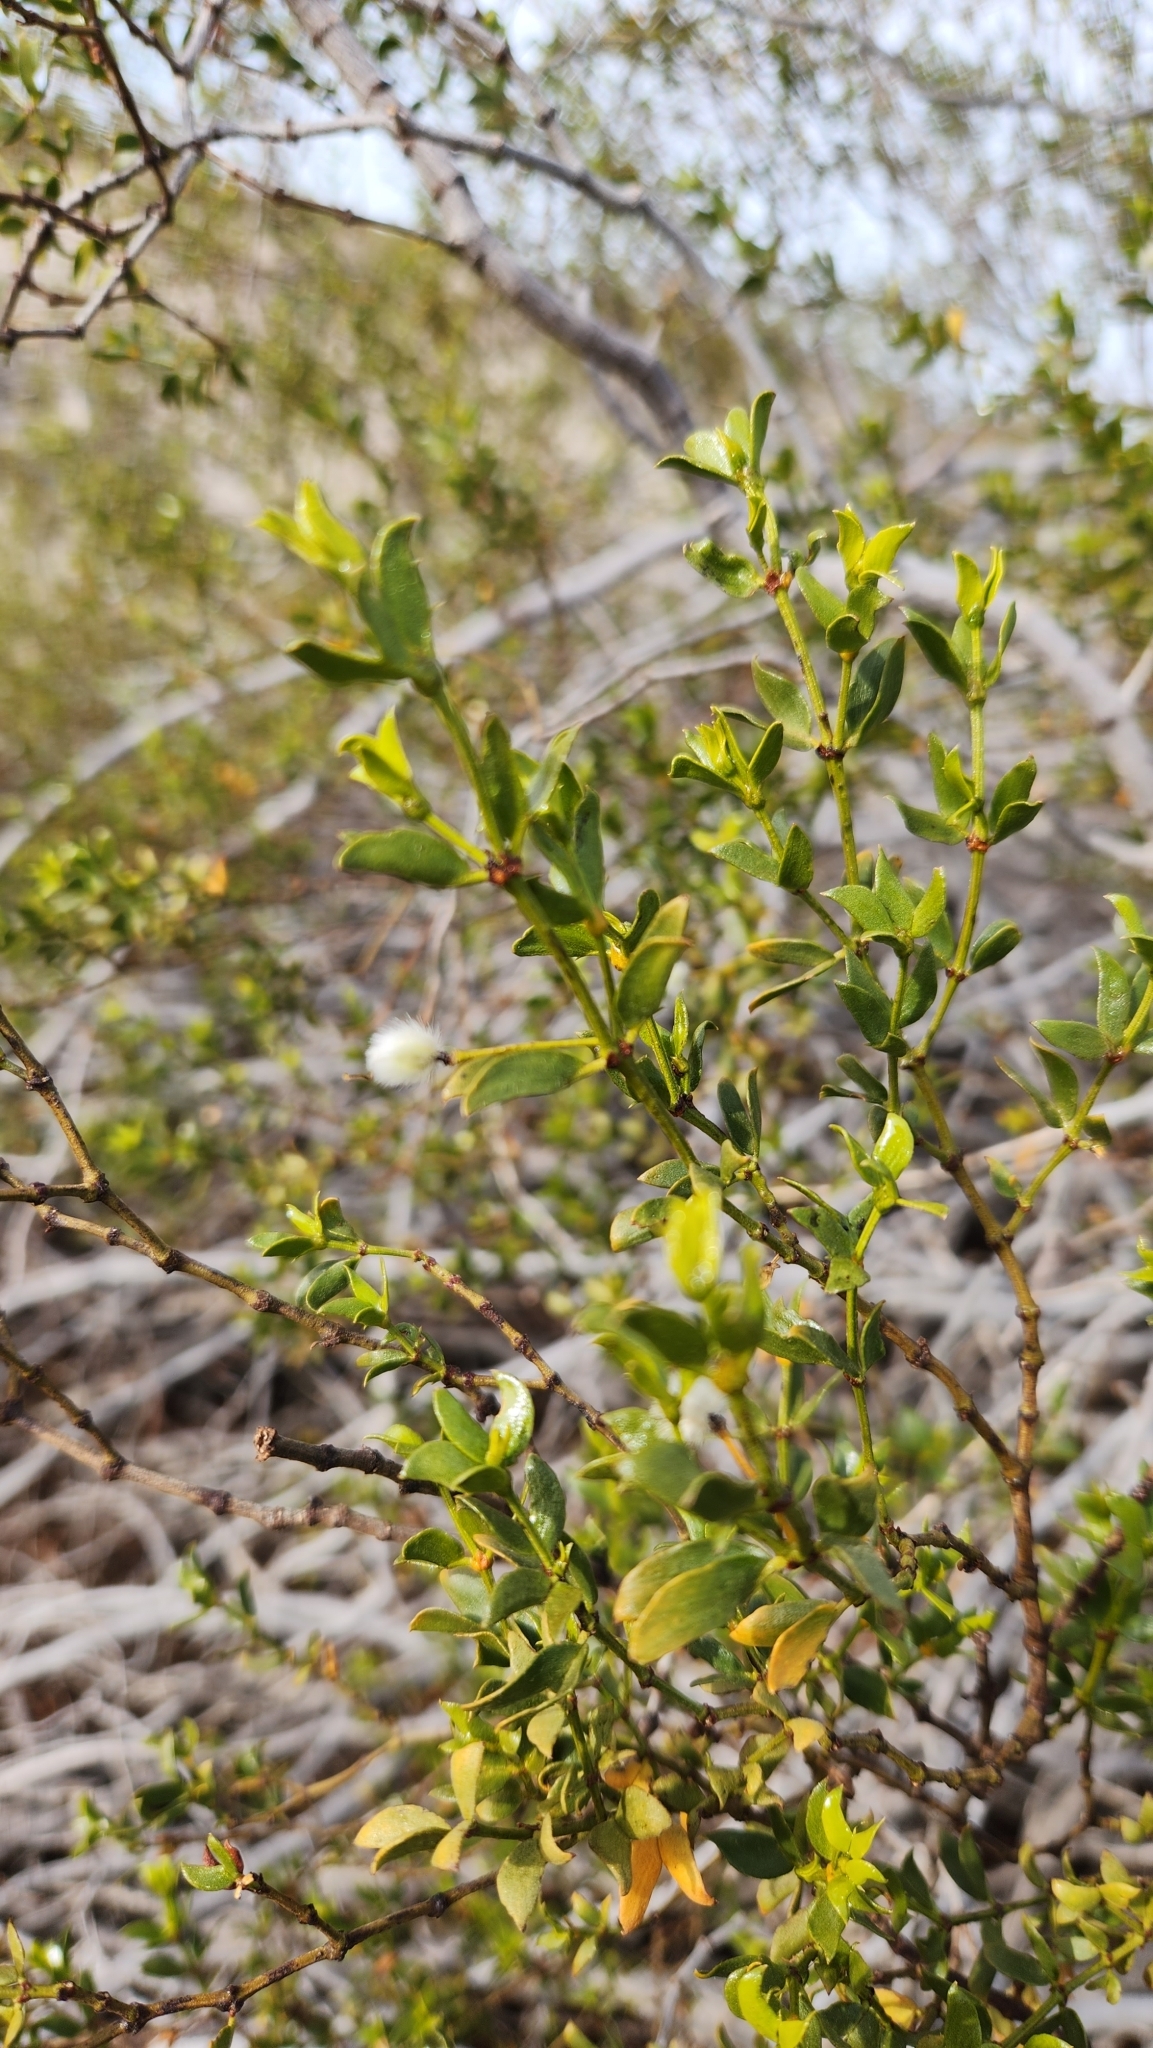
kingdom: Plantae
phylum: Tracheophyta
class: Magnoliopsida
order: Zygophyllales
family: Zygophyllaceae
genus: Larrea
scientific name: Larrea tridentata
